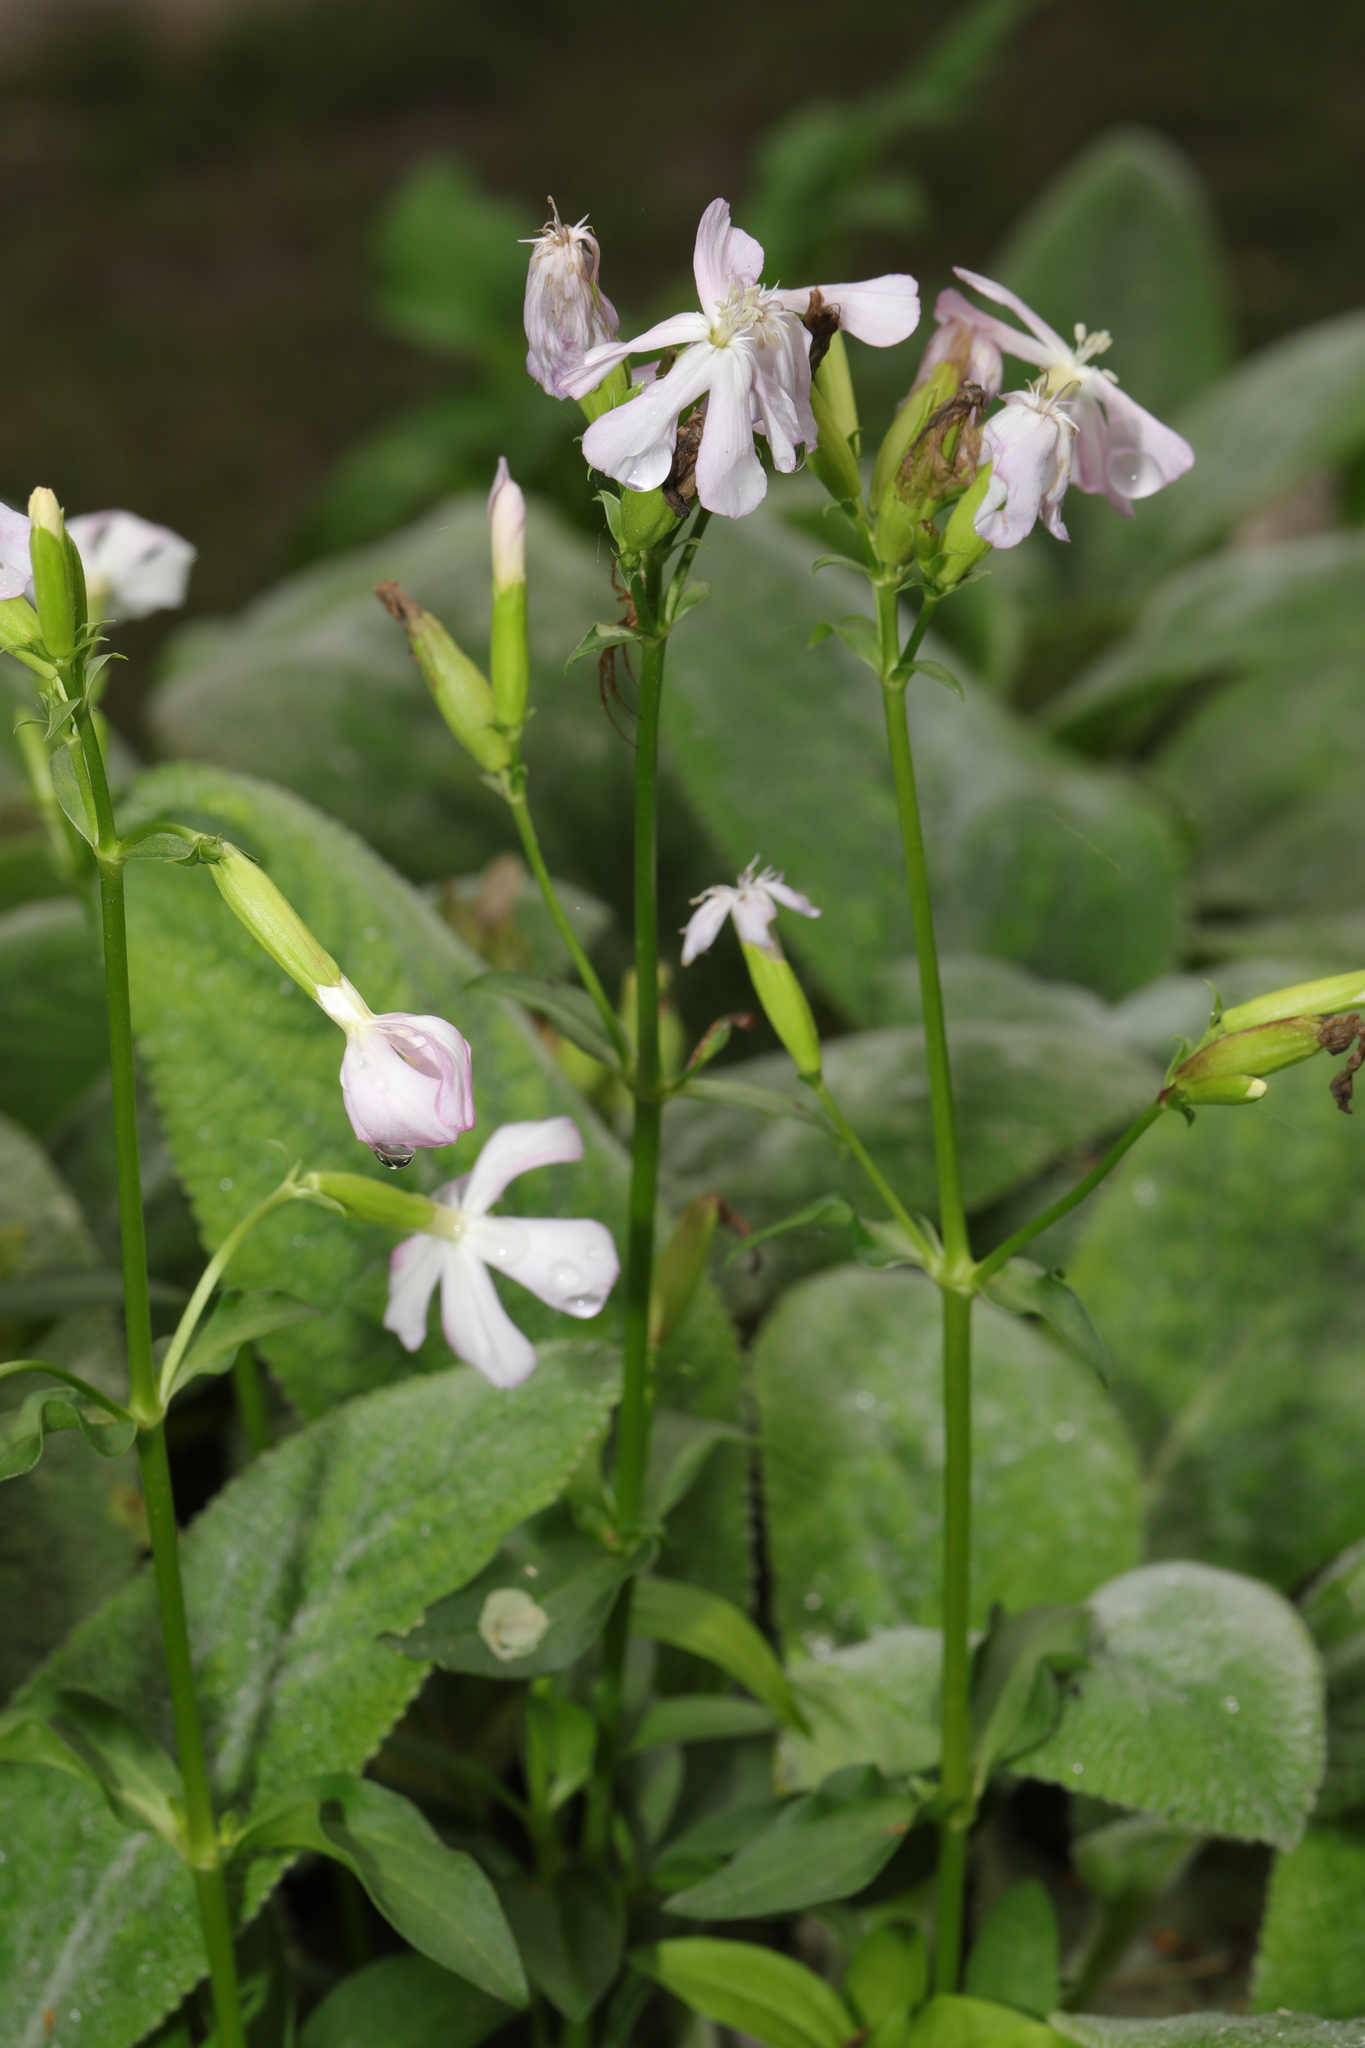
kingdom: Plantae
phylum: Tracheophyta
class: Magnoliopsida
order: Caryophyllales
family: Caryophyllaceae
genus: Saponaria
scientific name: Saponaria officinalis
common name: Soapwort
